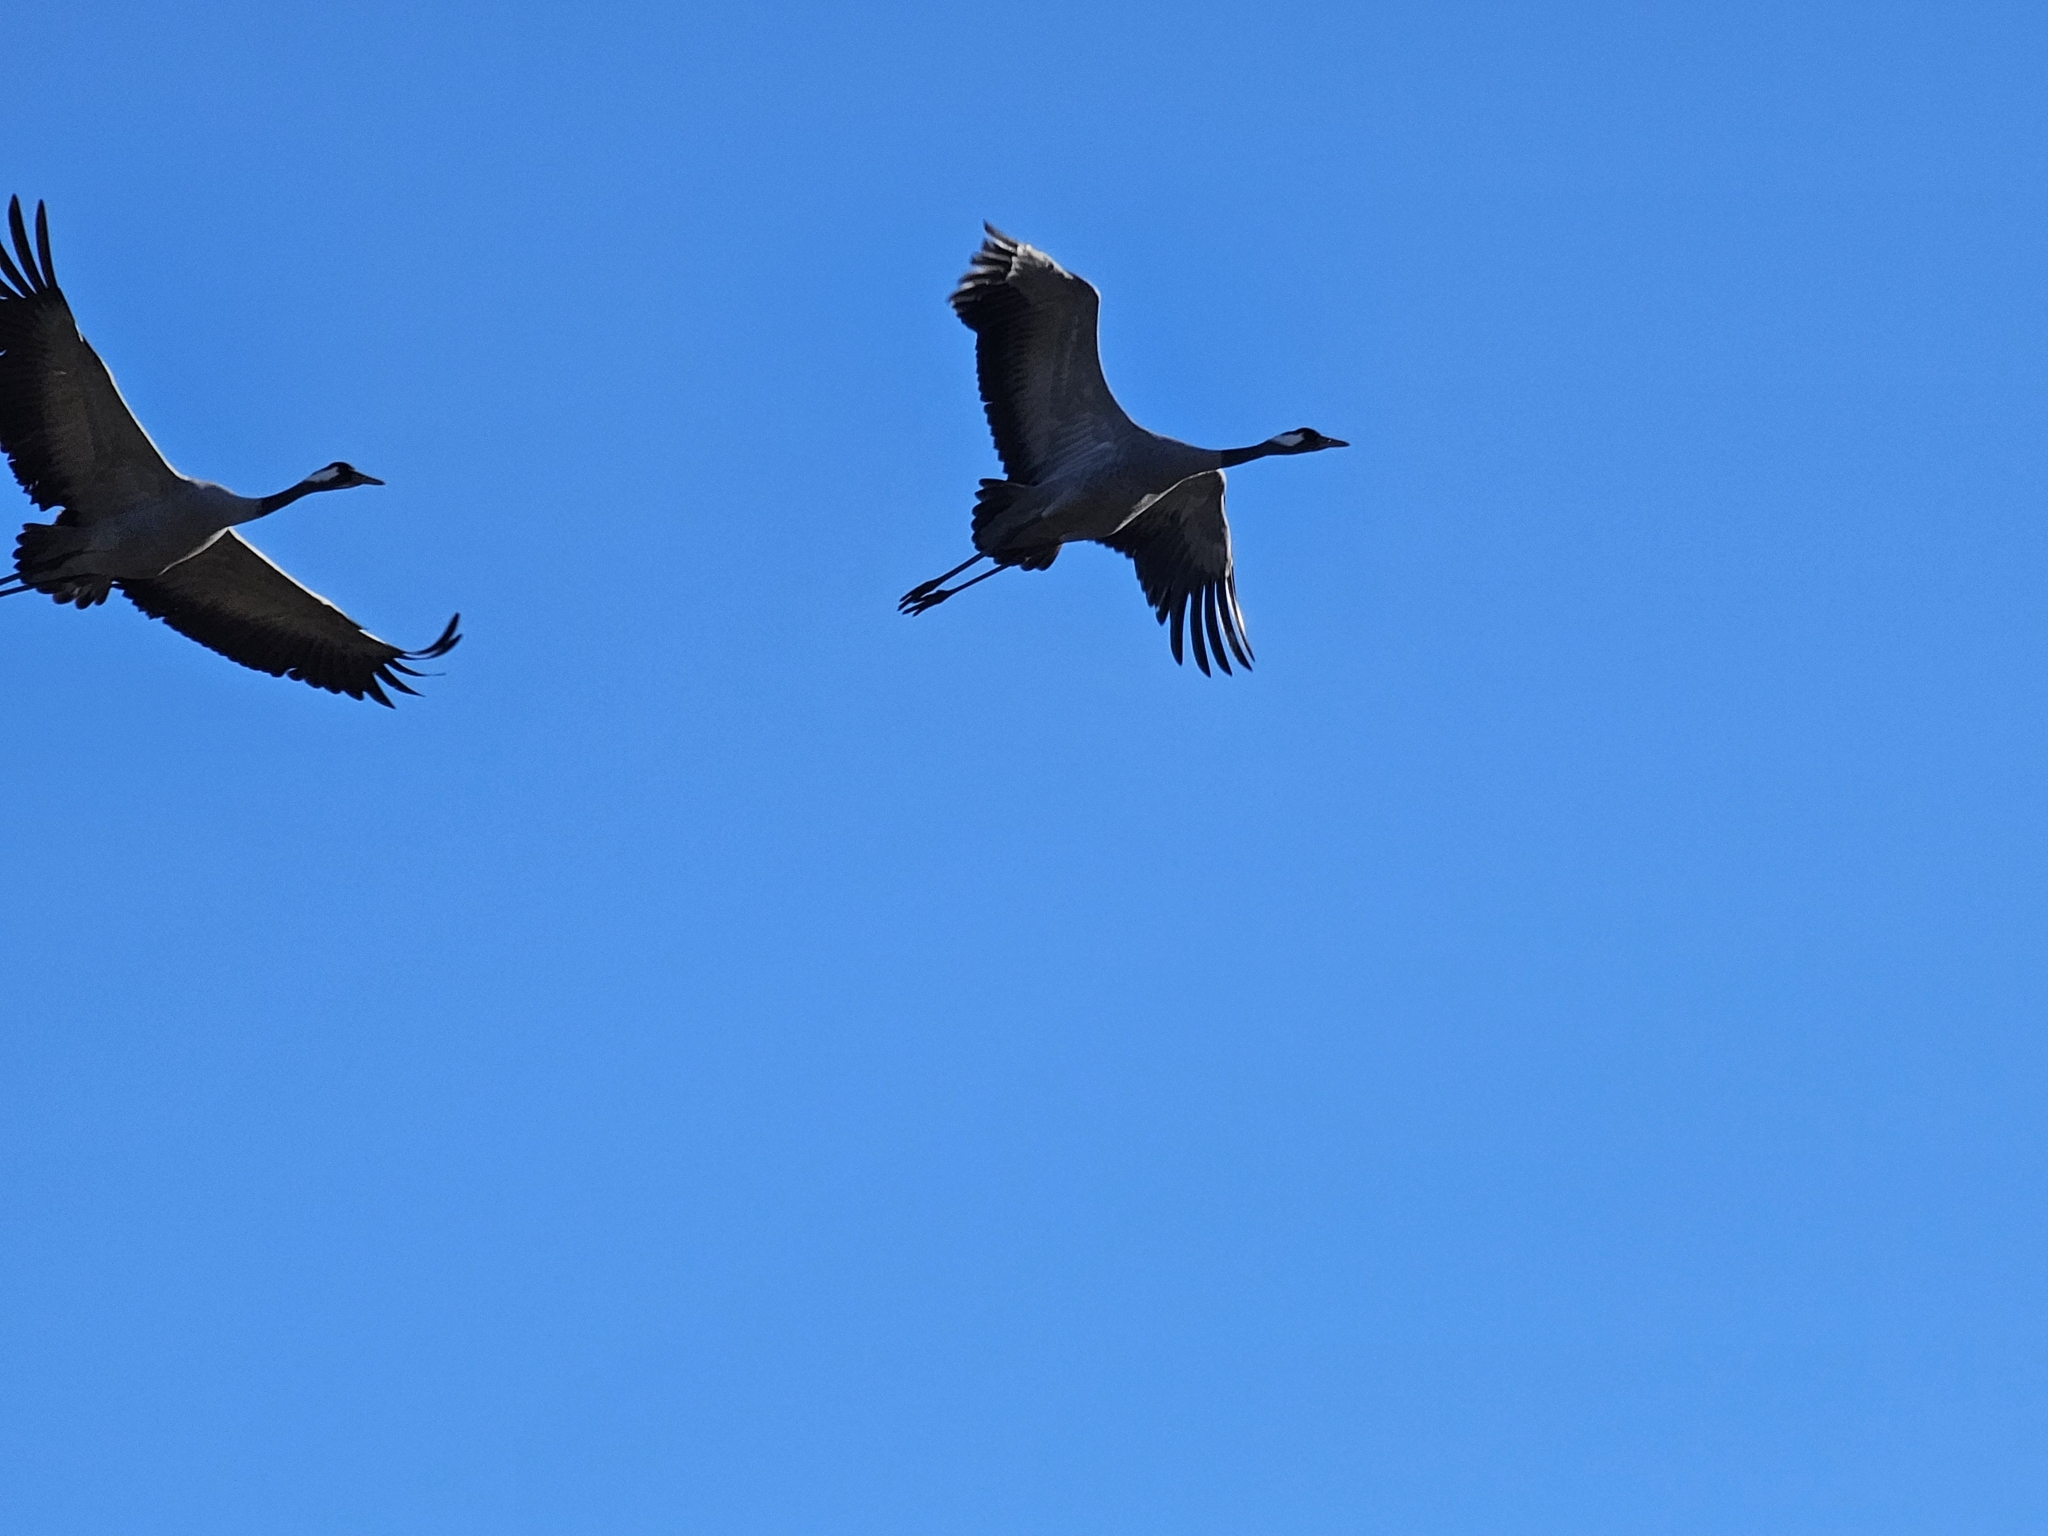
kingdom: Animalia
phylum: Chordata
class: Aves
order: Gruiformes
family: Gruidae
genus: Grus
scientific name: Grus grus
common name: Common crane
